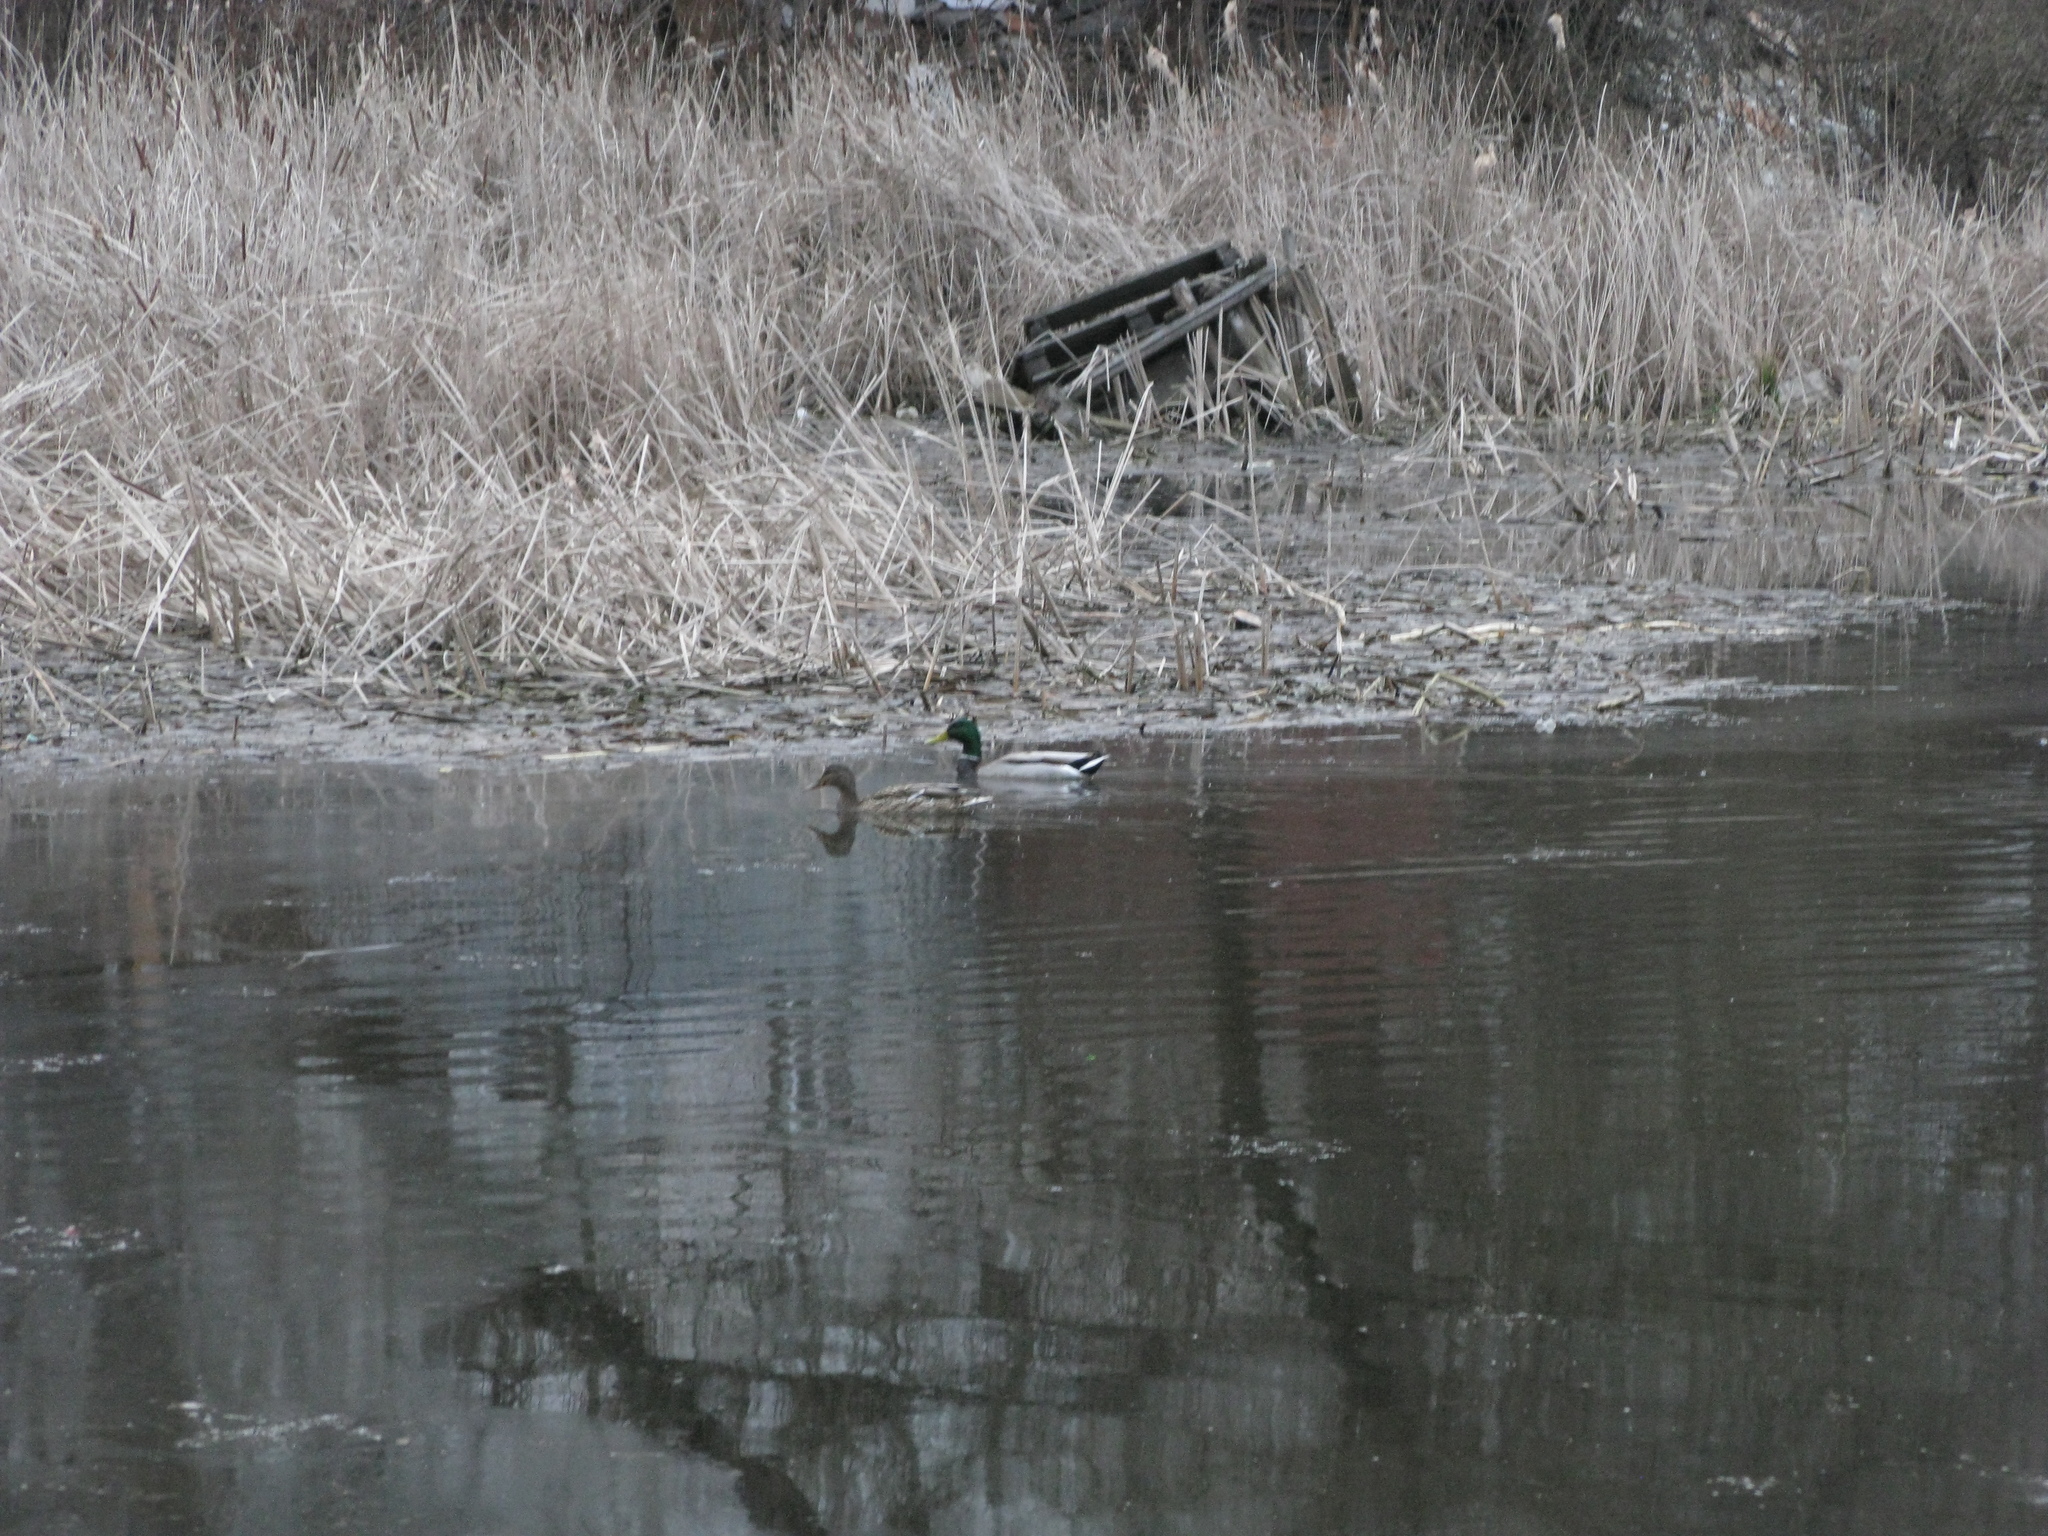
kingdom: Animalia
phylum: Chordata
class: Aves
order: Anseriformes
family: Anatidae
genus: Anas
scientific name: Anas platyrhynchos
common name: Mallard
